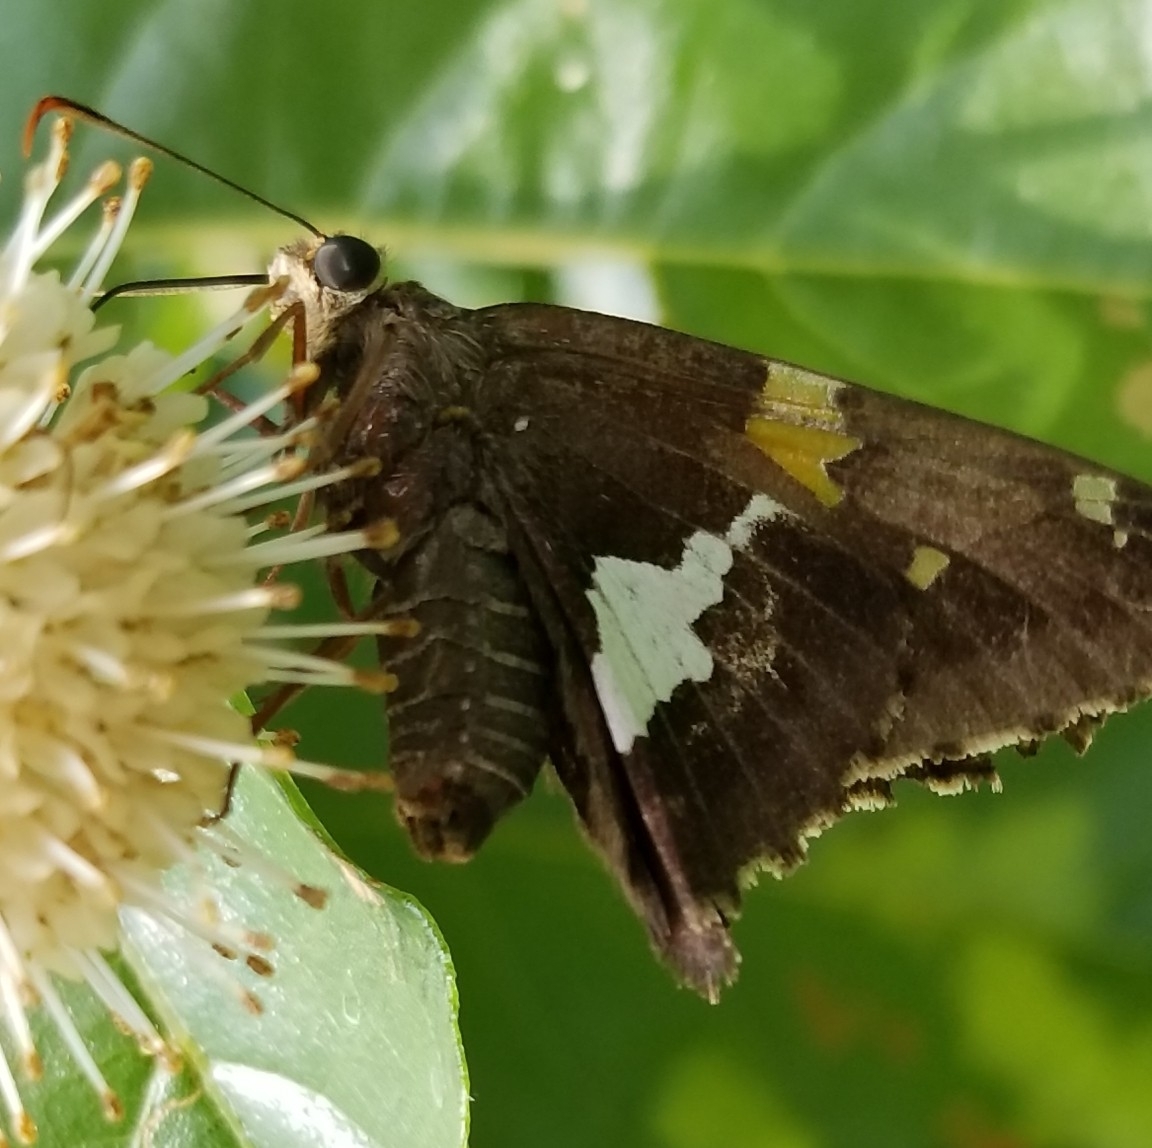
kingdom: Animalia
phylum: Arthropoda
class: Insecta
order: Lepidoptera
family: Hesperiidae
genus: Epargyreus
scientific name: Epargyreus clarus
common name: Silver-spotted skipper
